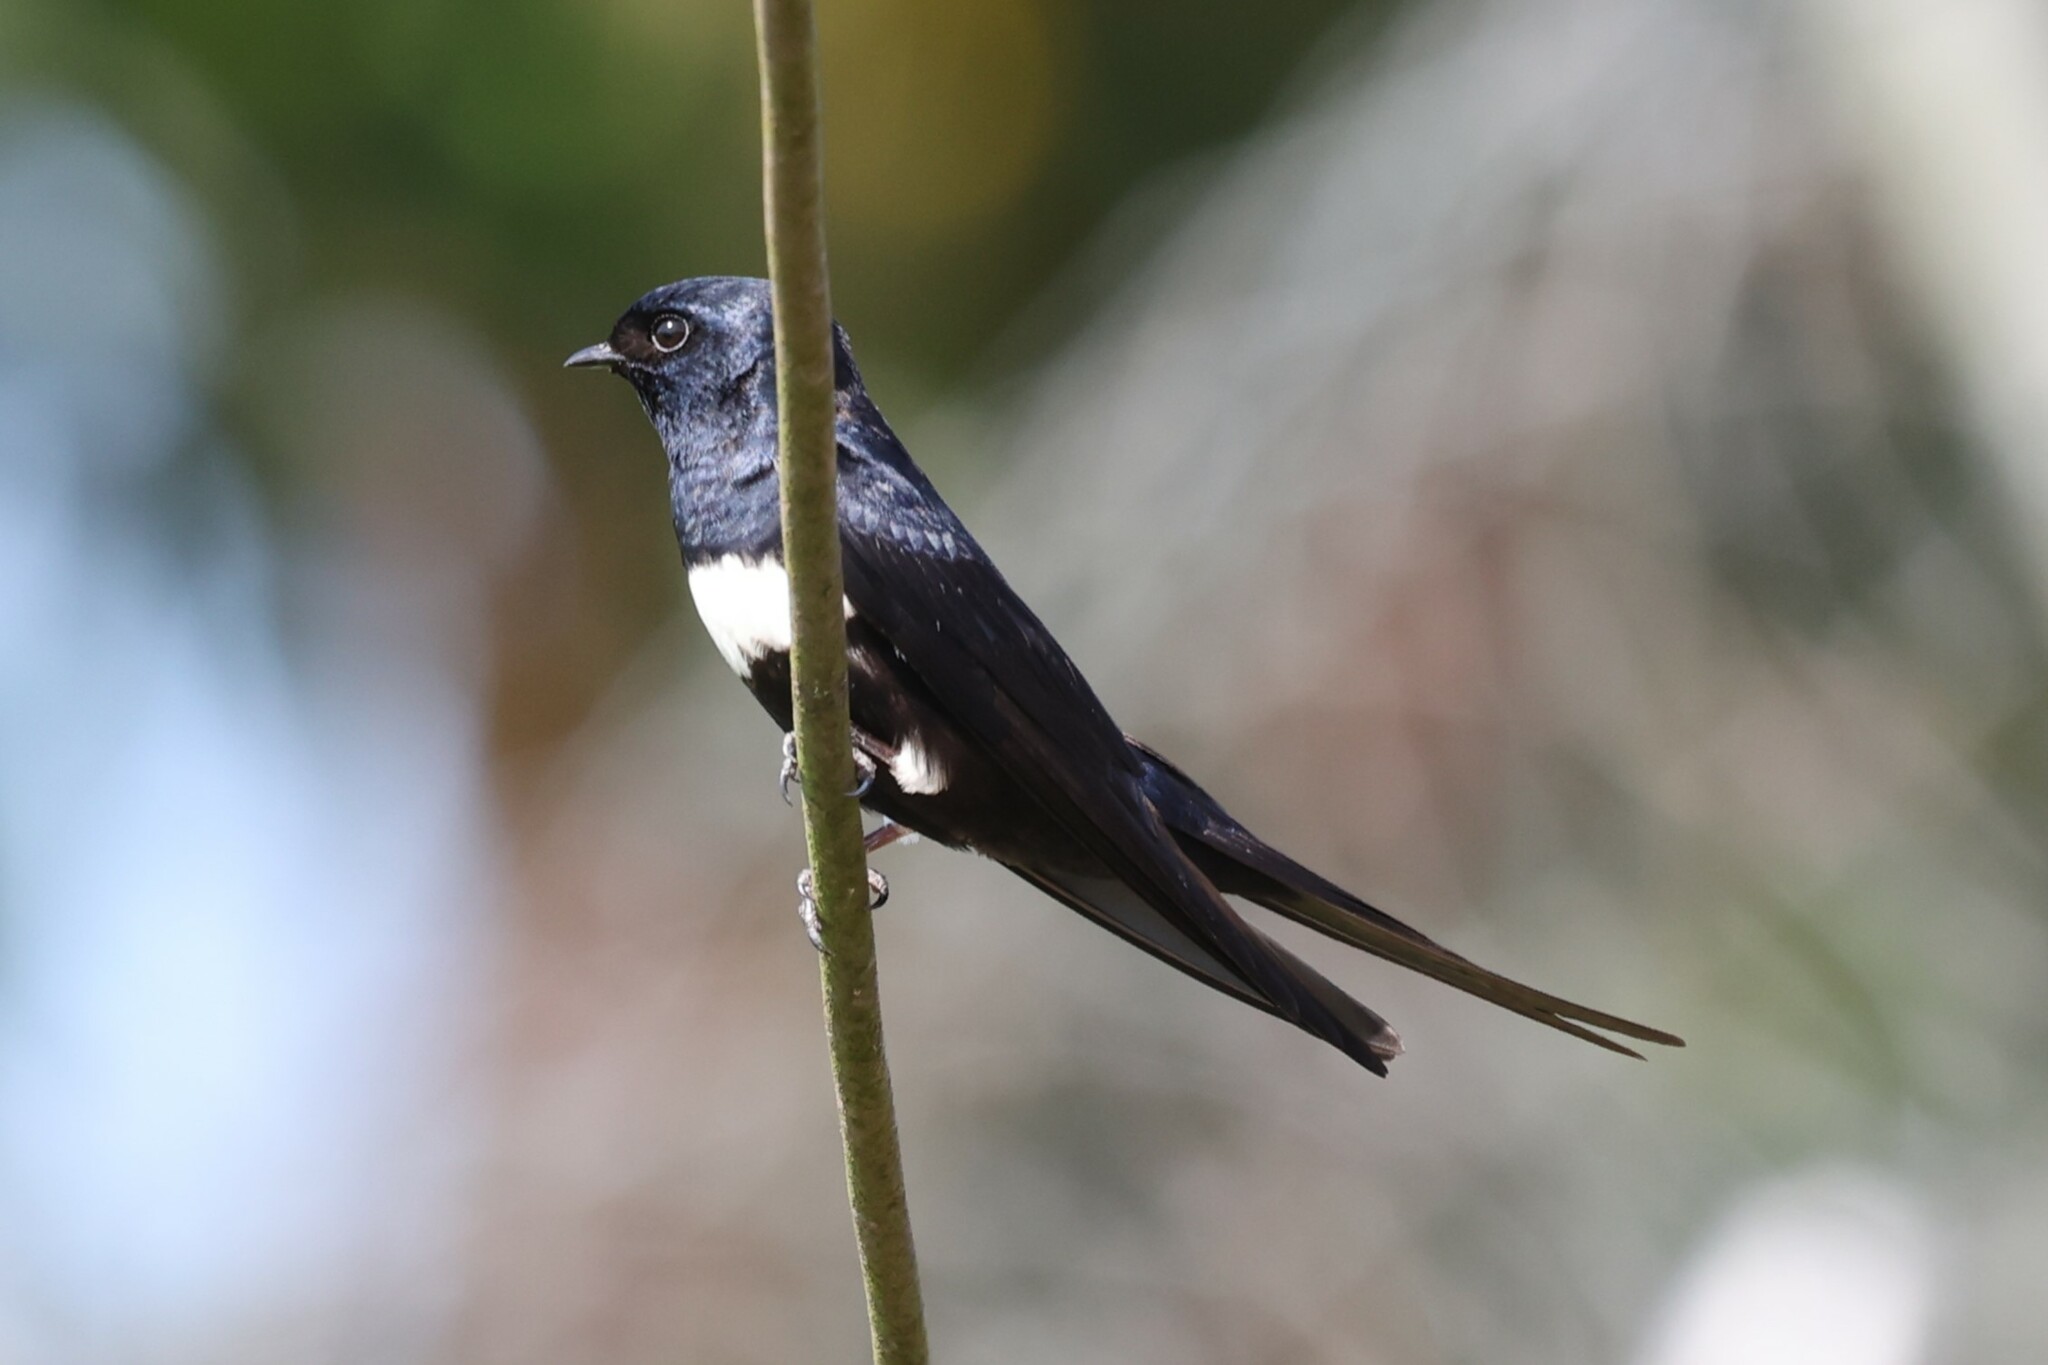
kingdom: Animalia
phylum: Chordata
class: Aves
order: Passeriformes
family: Hirundinidae
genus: Atticora
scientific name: Atticora fasciata
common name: White-banded swallow
